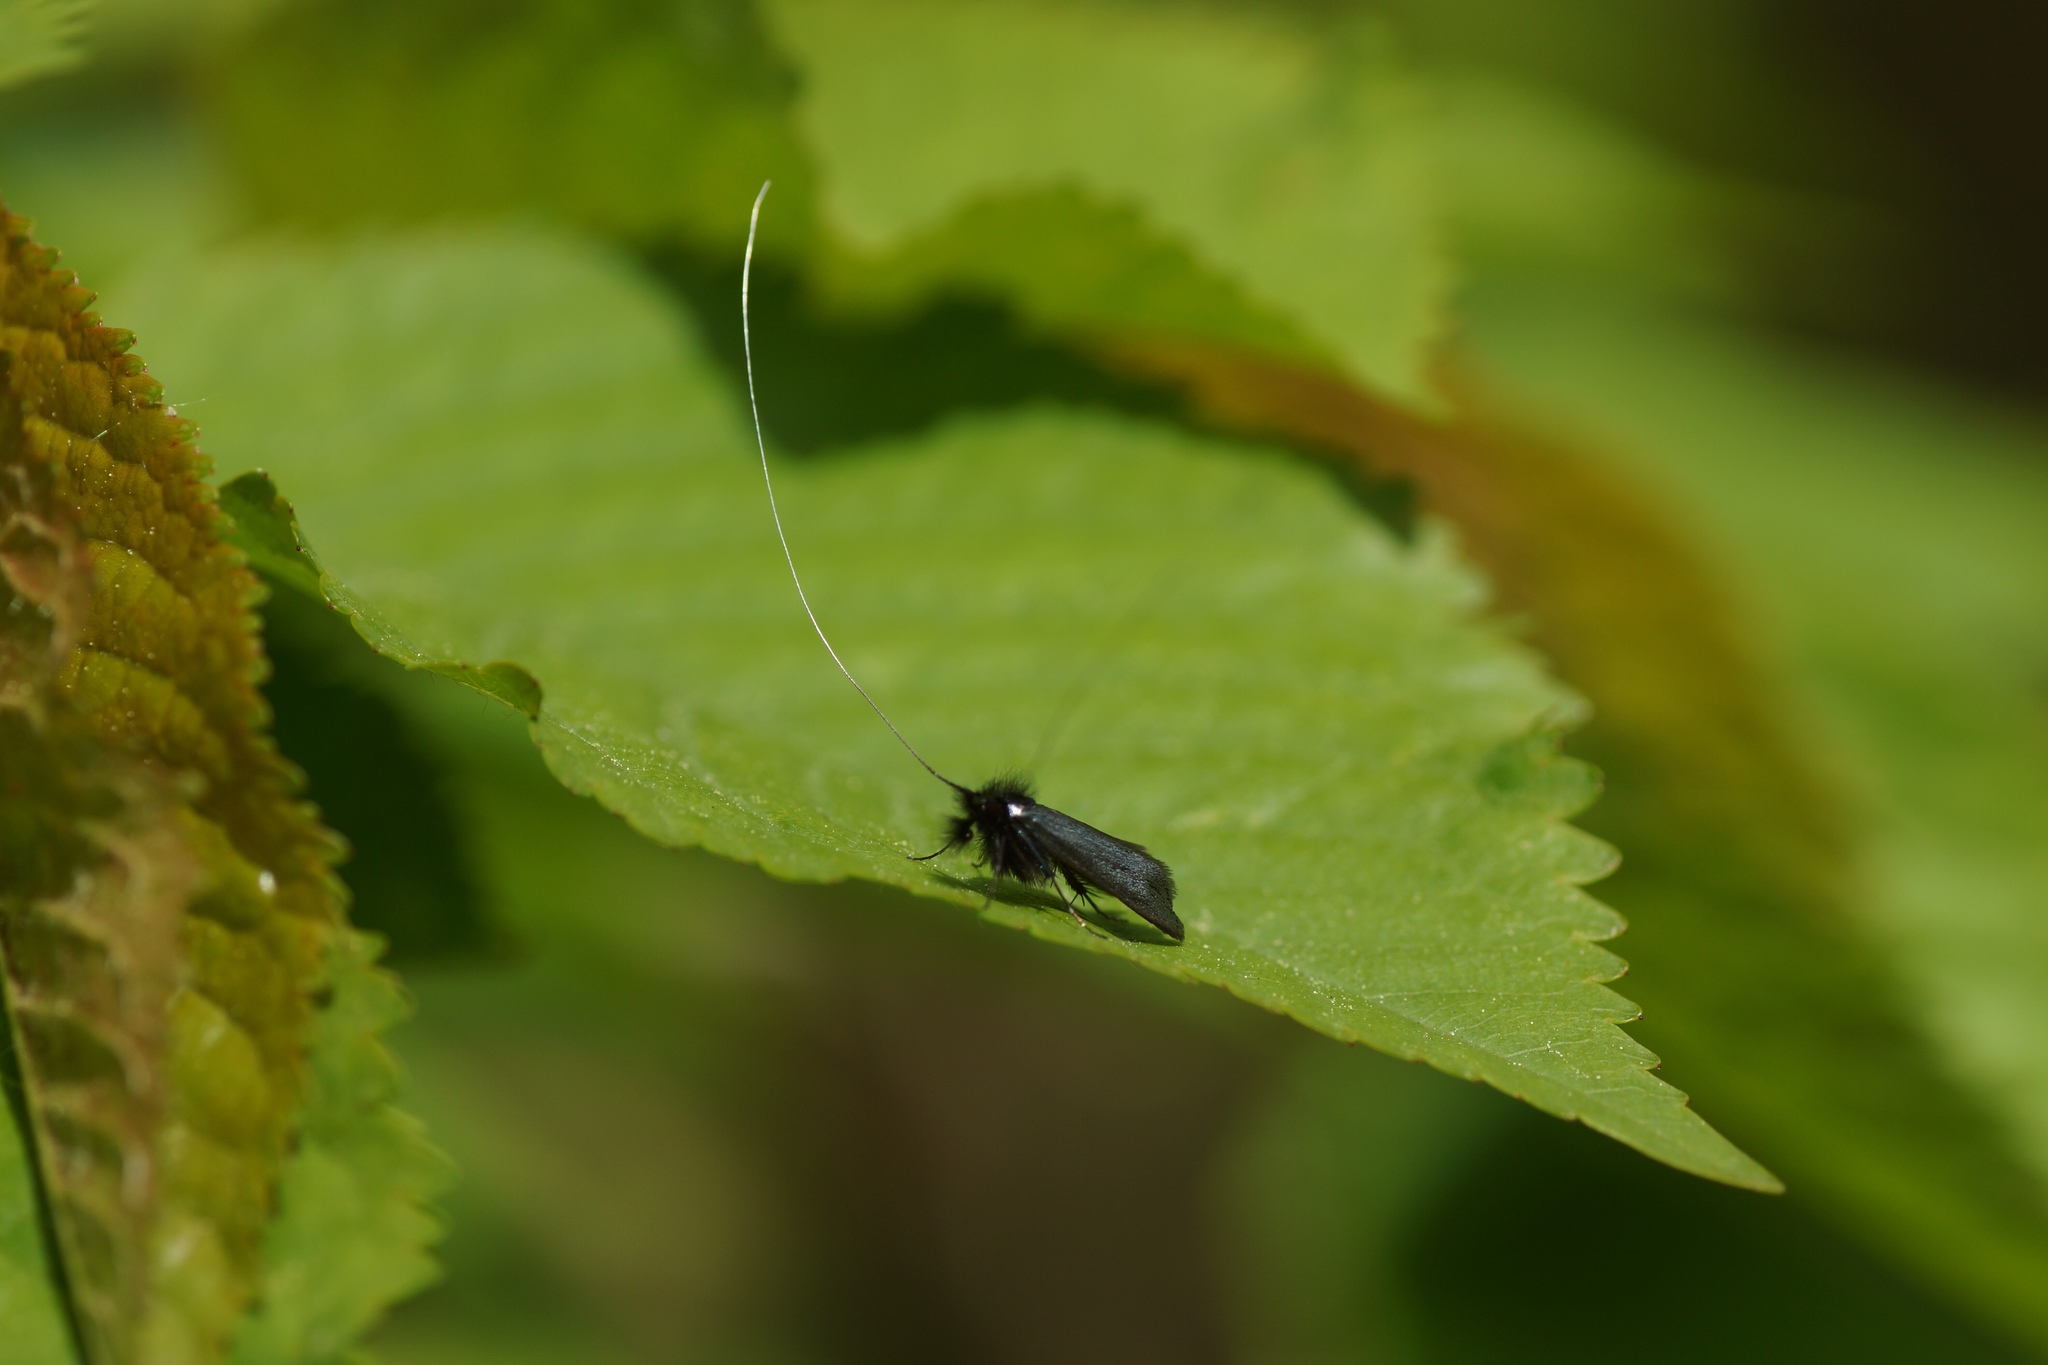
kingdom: Animalia
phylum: Arthropoda
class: Insecta
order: Lepidoptera
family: Adelidae
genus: Adela
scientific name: Adela viridella
